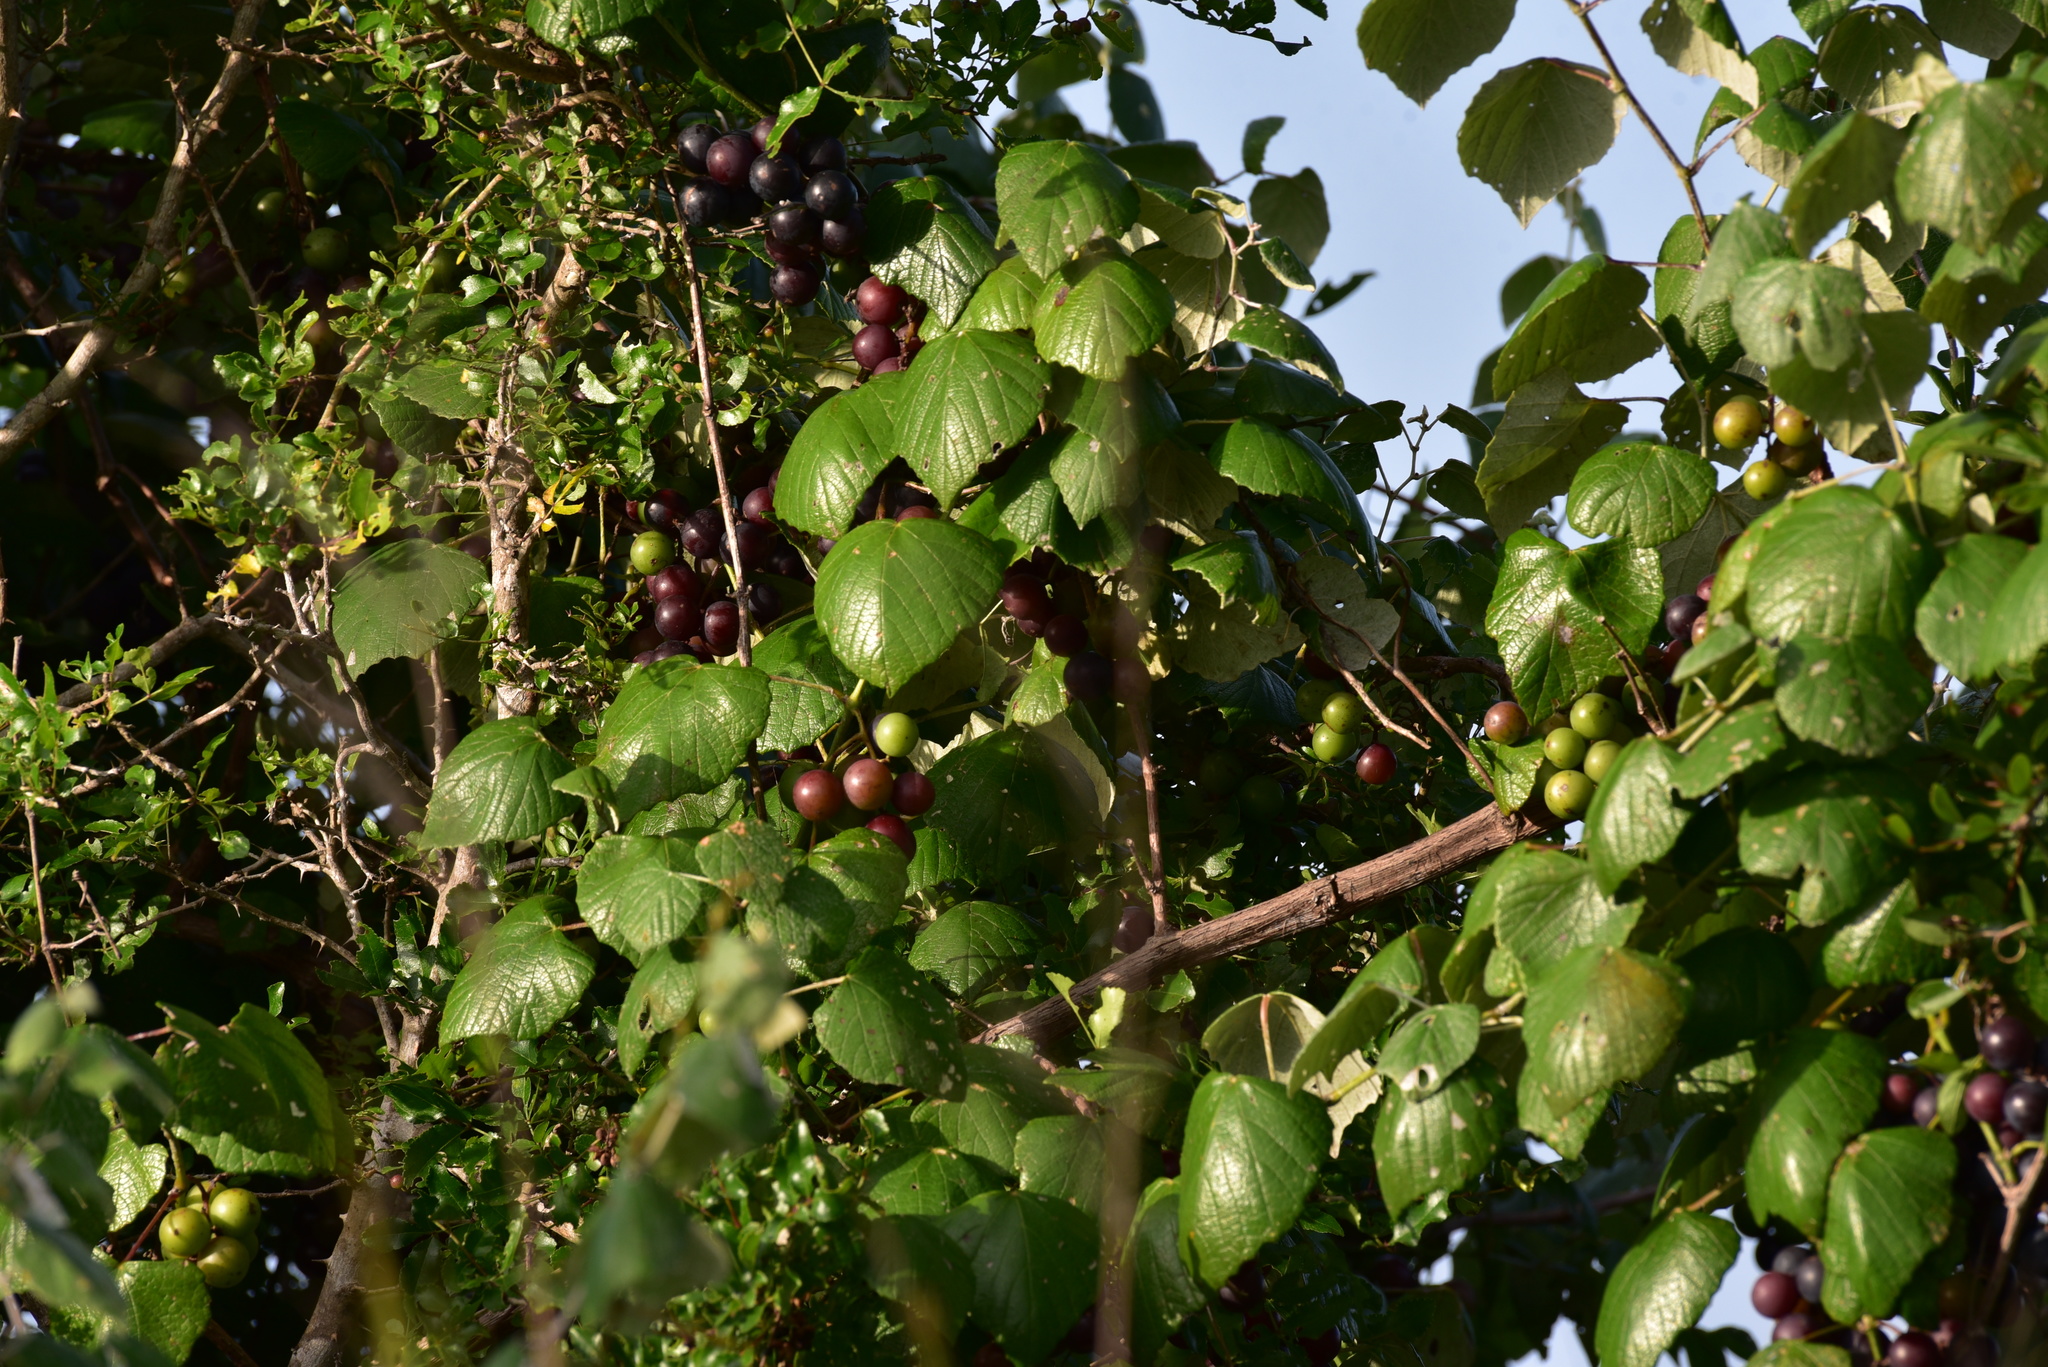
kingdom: Plantae
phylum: Tracheophyta
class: Magnoliopsida
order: Vitales
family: Vitaceae
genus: Vitis
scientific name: Vitis mustangensis
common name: Mustang grape
